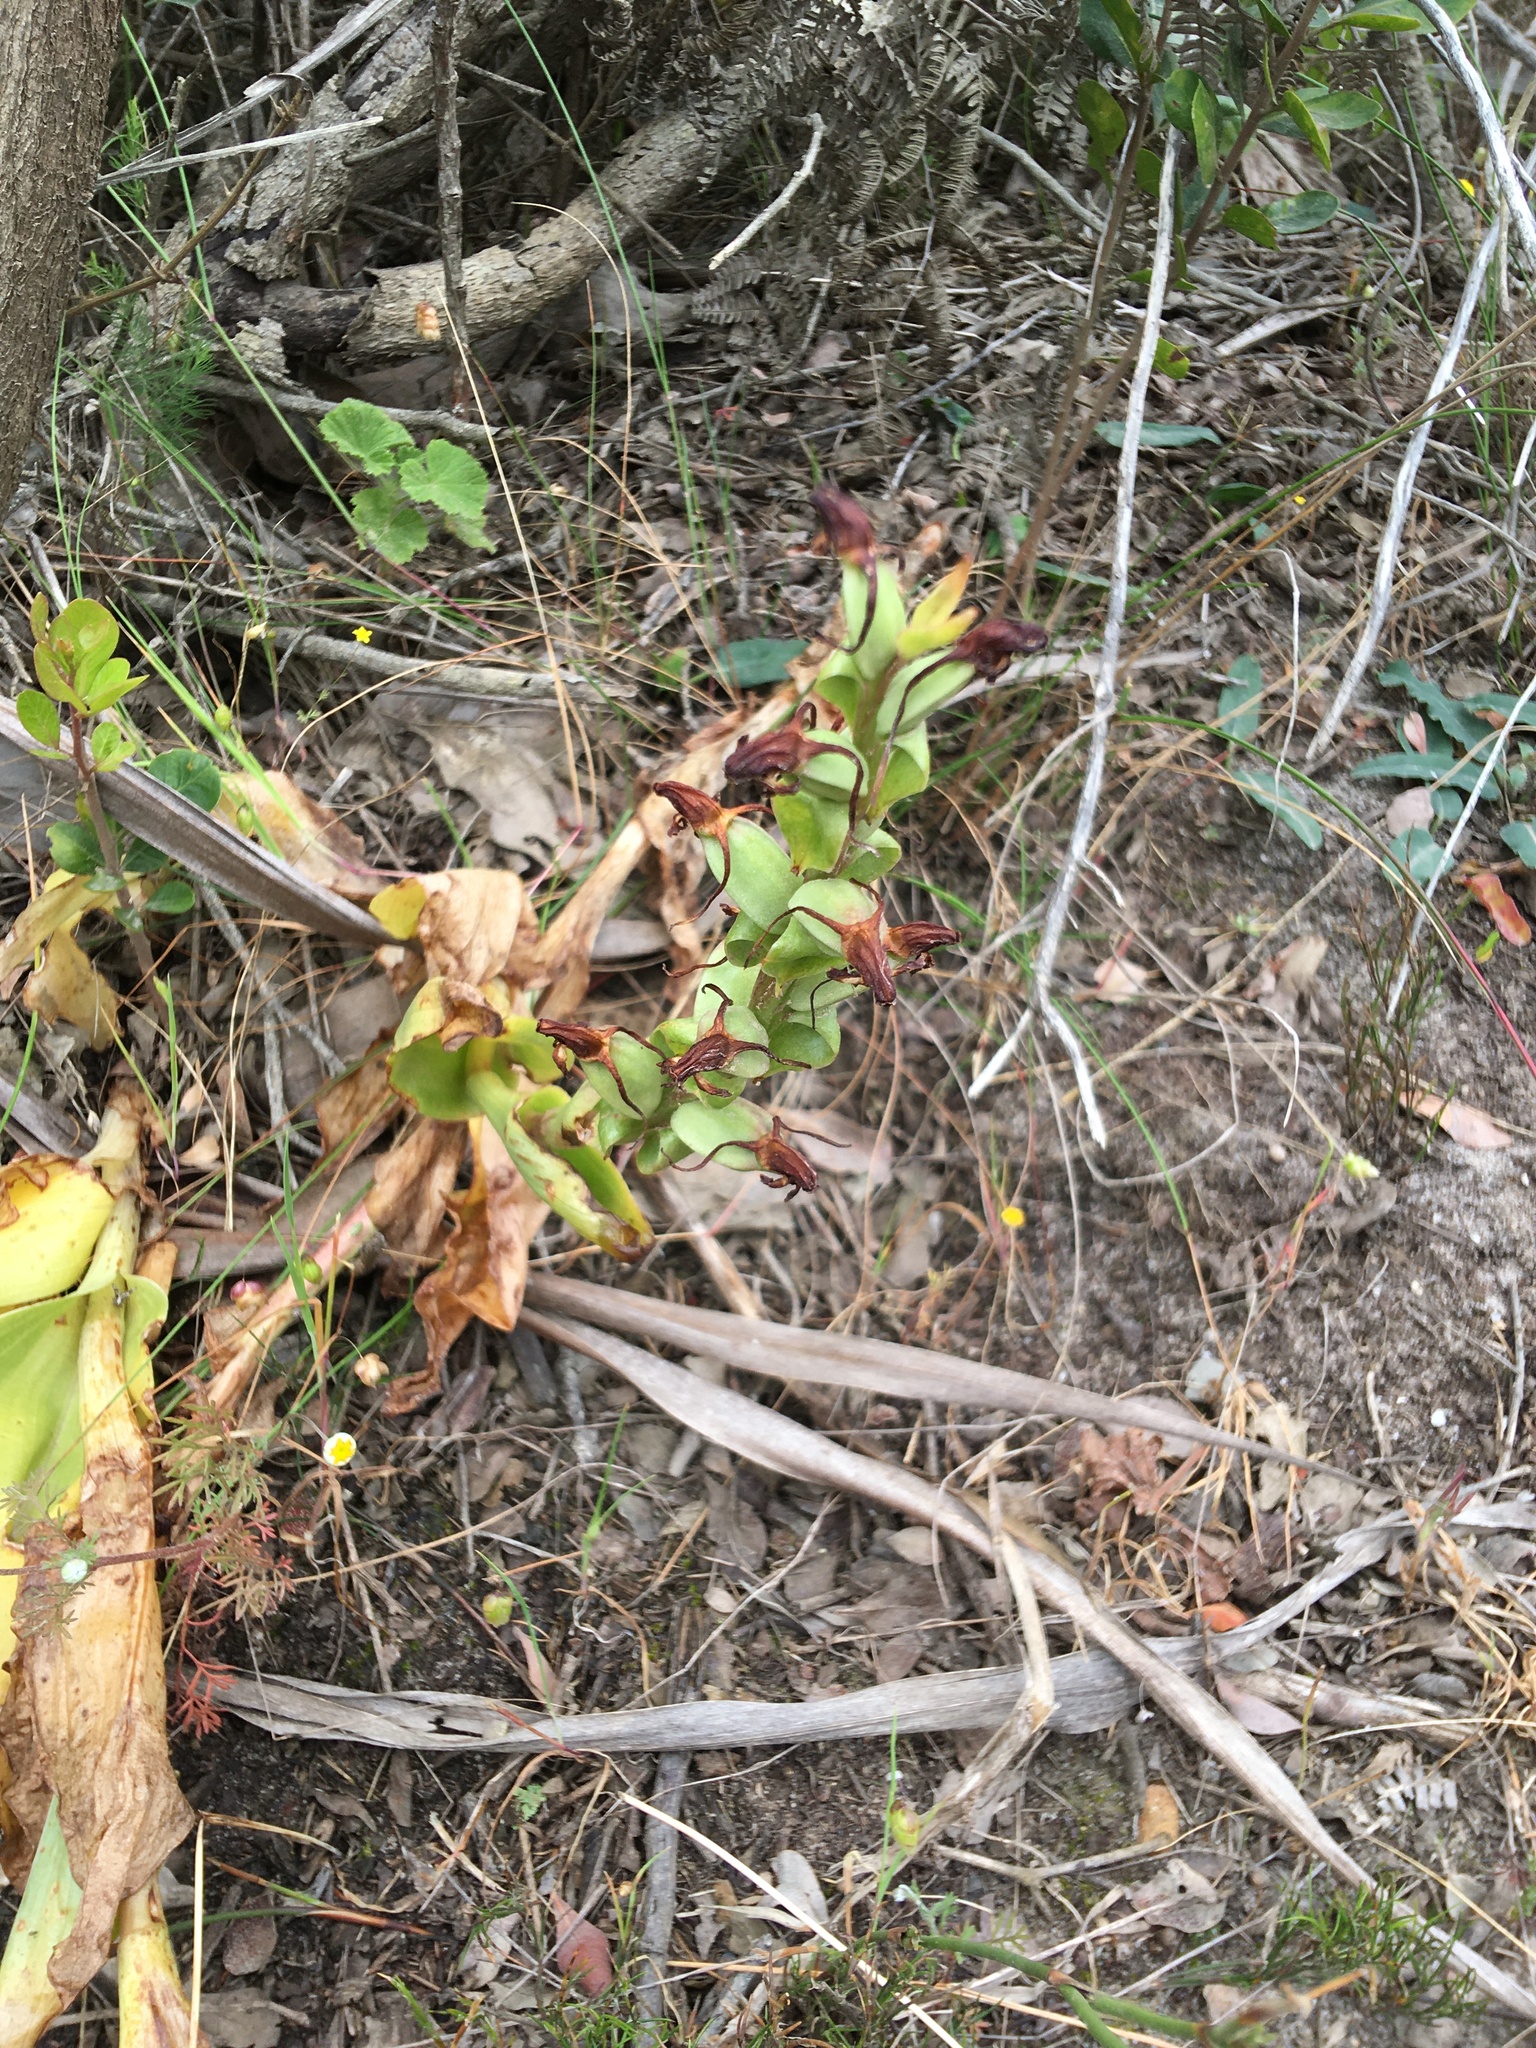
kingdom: Plantae
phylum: Tracheophyta
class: Liliopsida
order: Asparagales
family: Orchidaceae
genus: Satyrium
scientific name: Satyrium odorum
